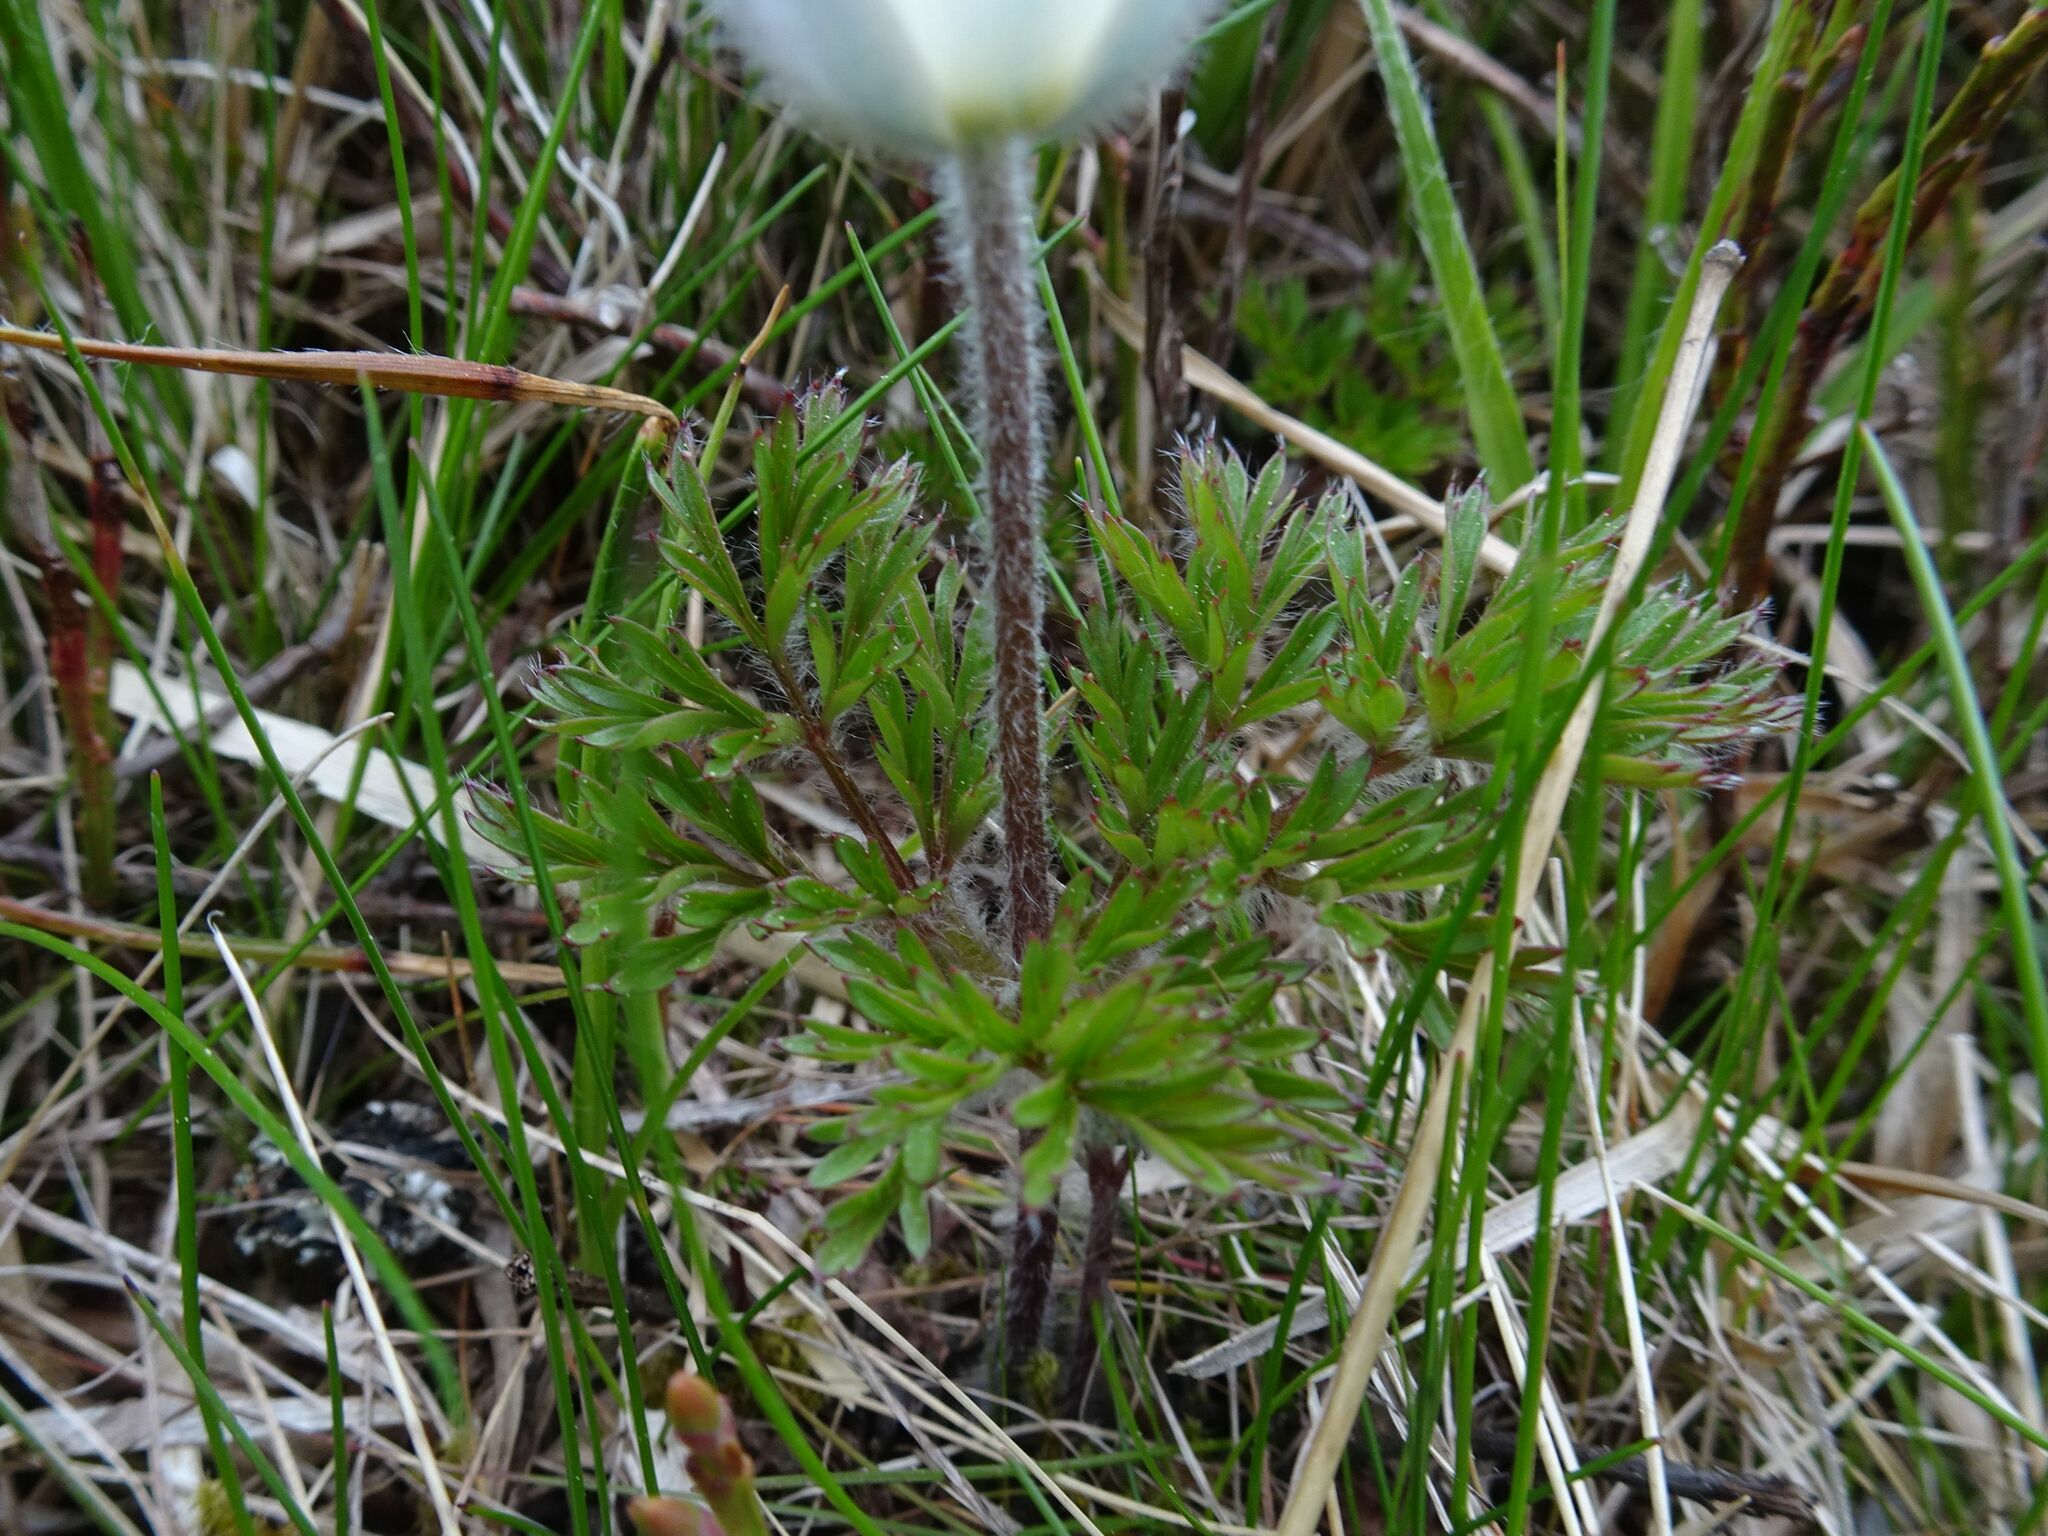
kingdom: Plantae
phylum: Tracheophyta
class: Magnoliopsida
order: Ranunculales
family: Ranunculaceae
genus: Pulsatilla
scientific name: Pulsatilla alpina
